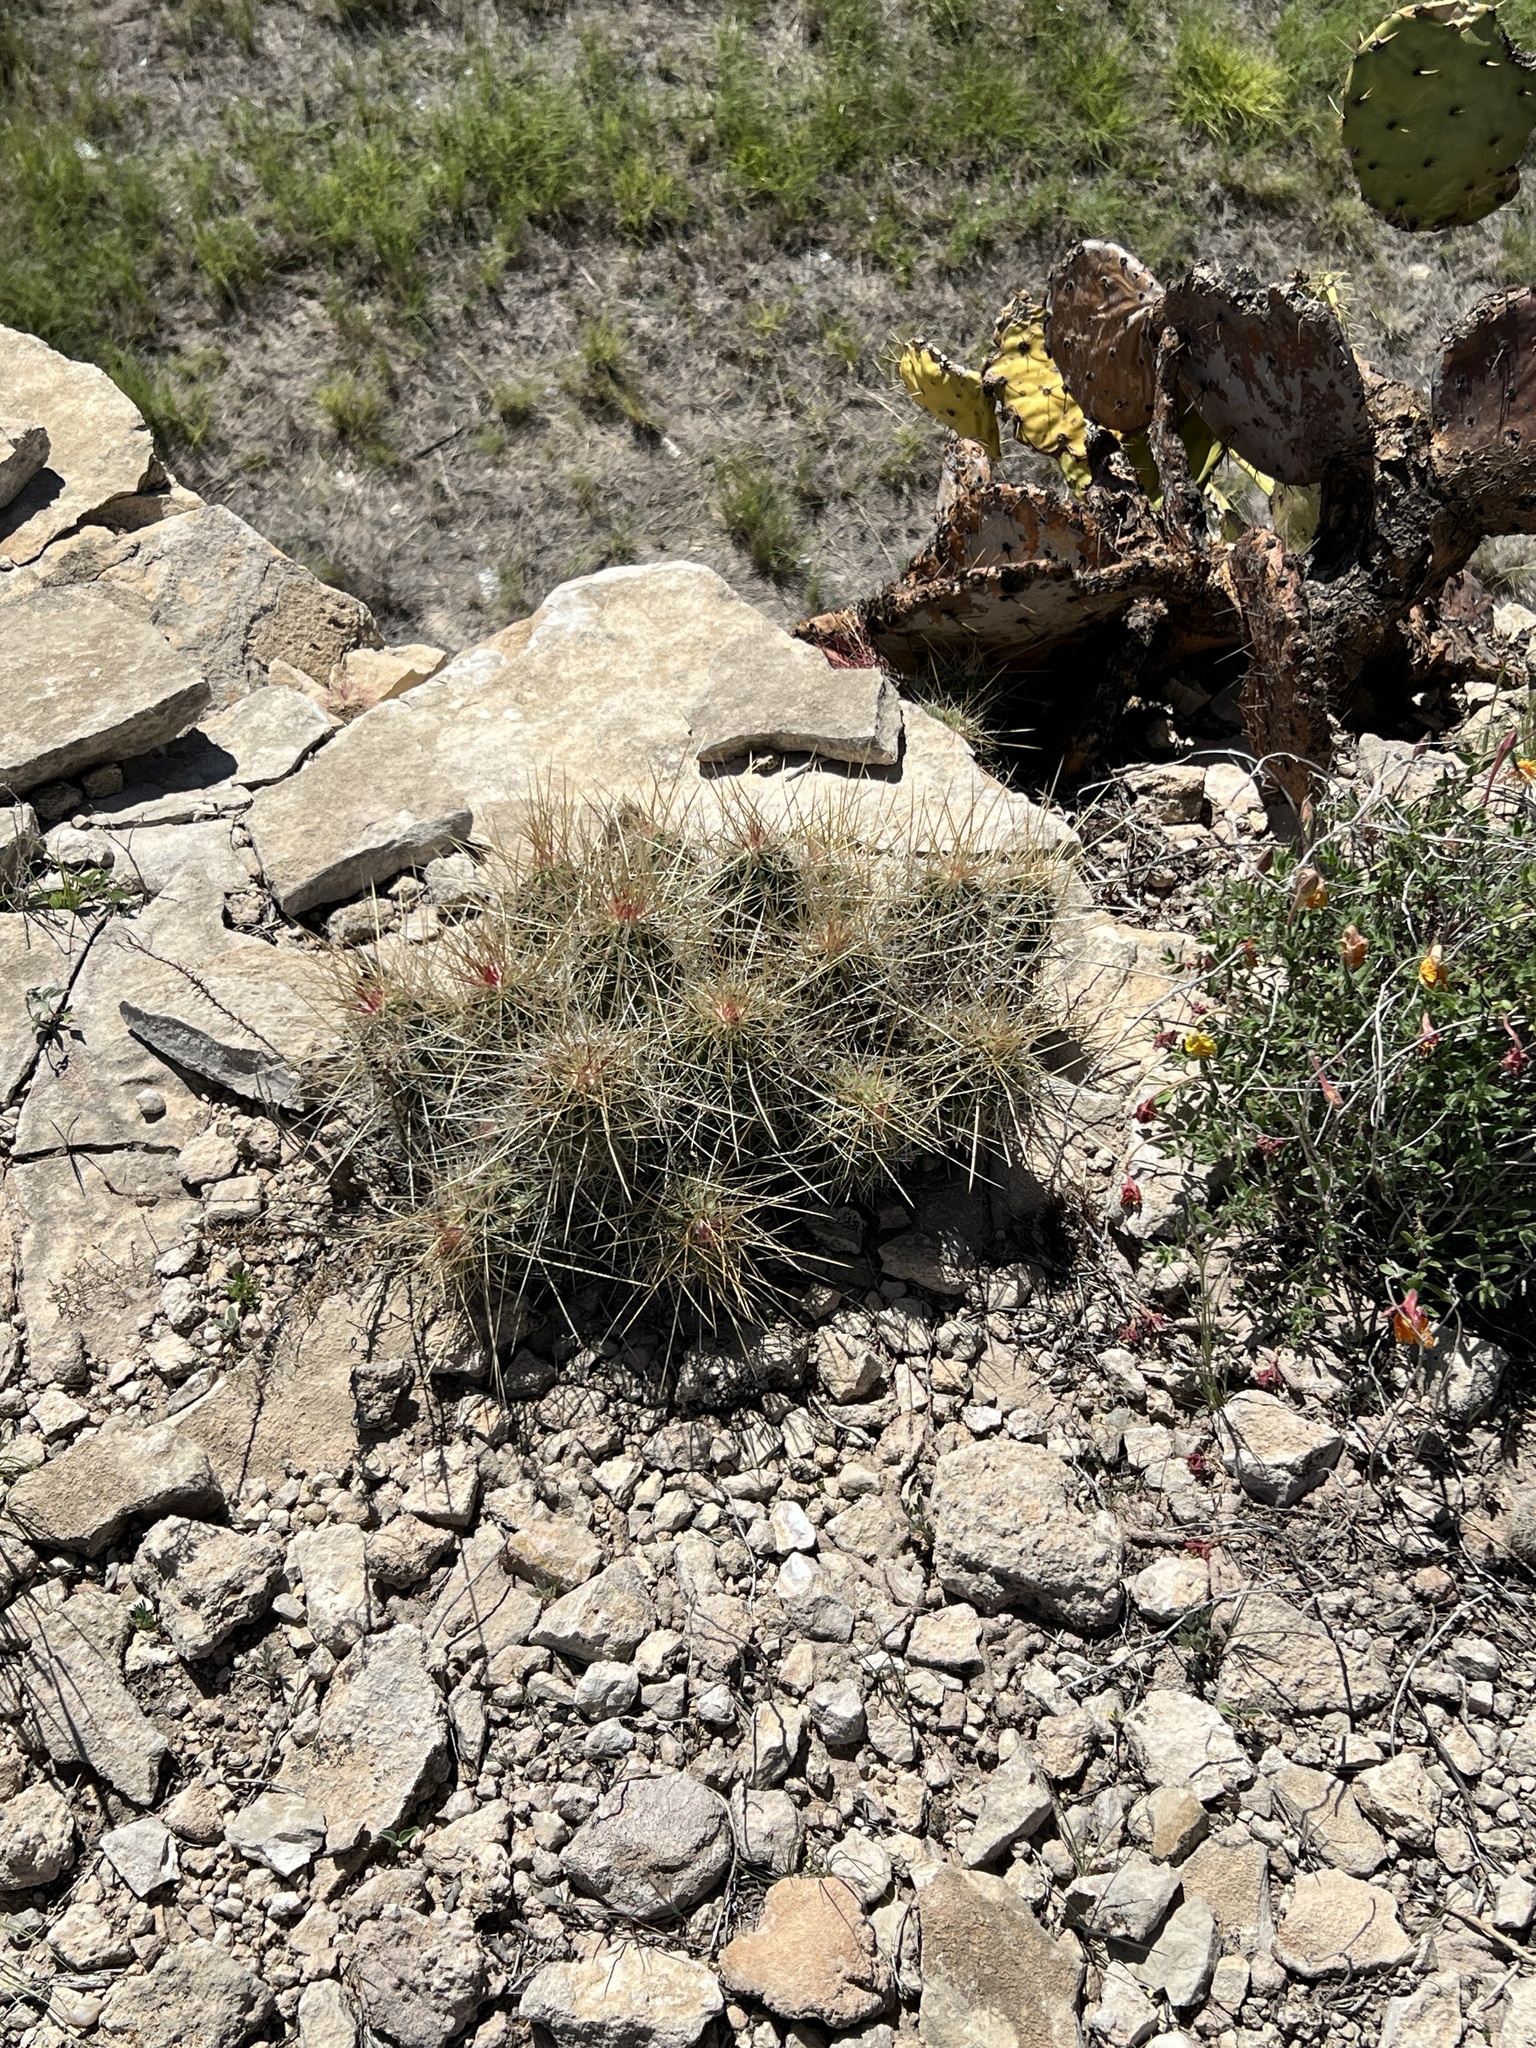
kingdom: Plantae
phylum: Tracheophyta
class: Magnoliopsida
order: Caryophyllales
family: Cactaceae
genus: Echinocereus
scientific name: Echinocereus stramineus
